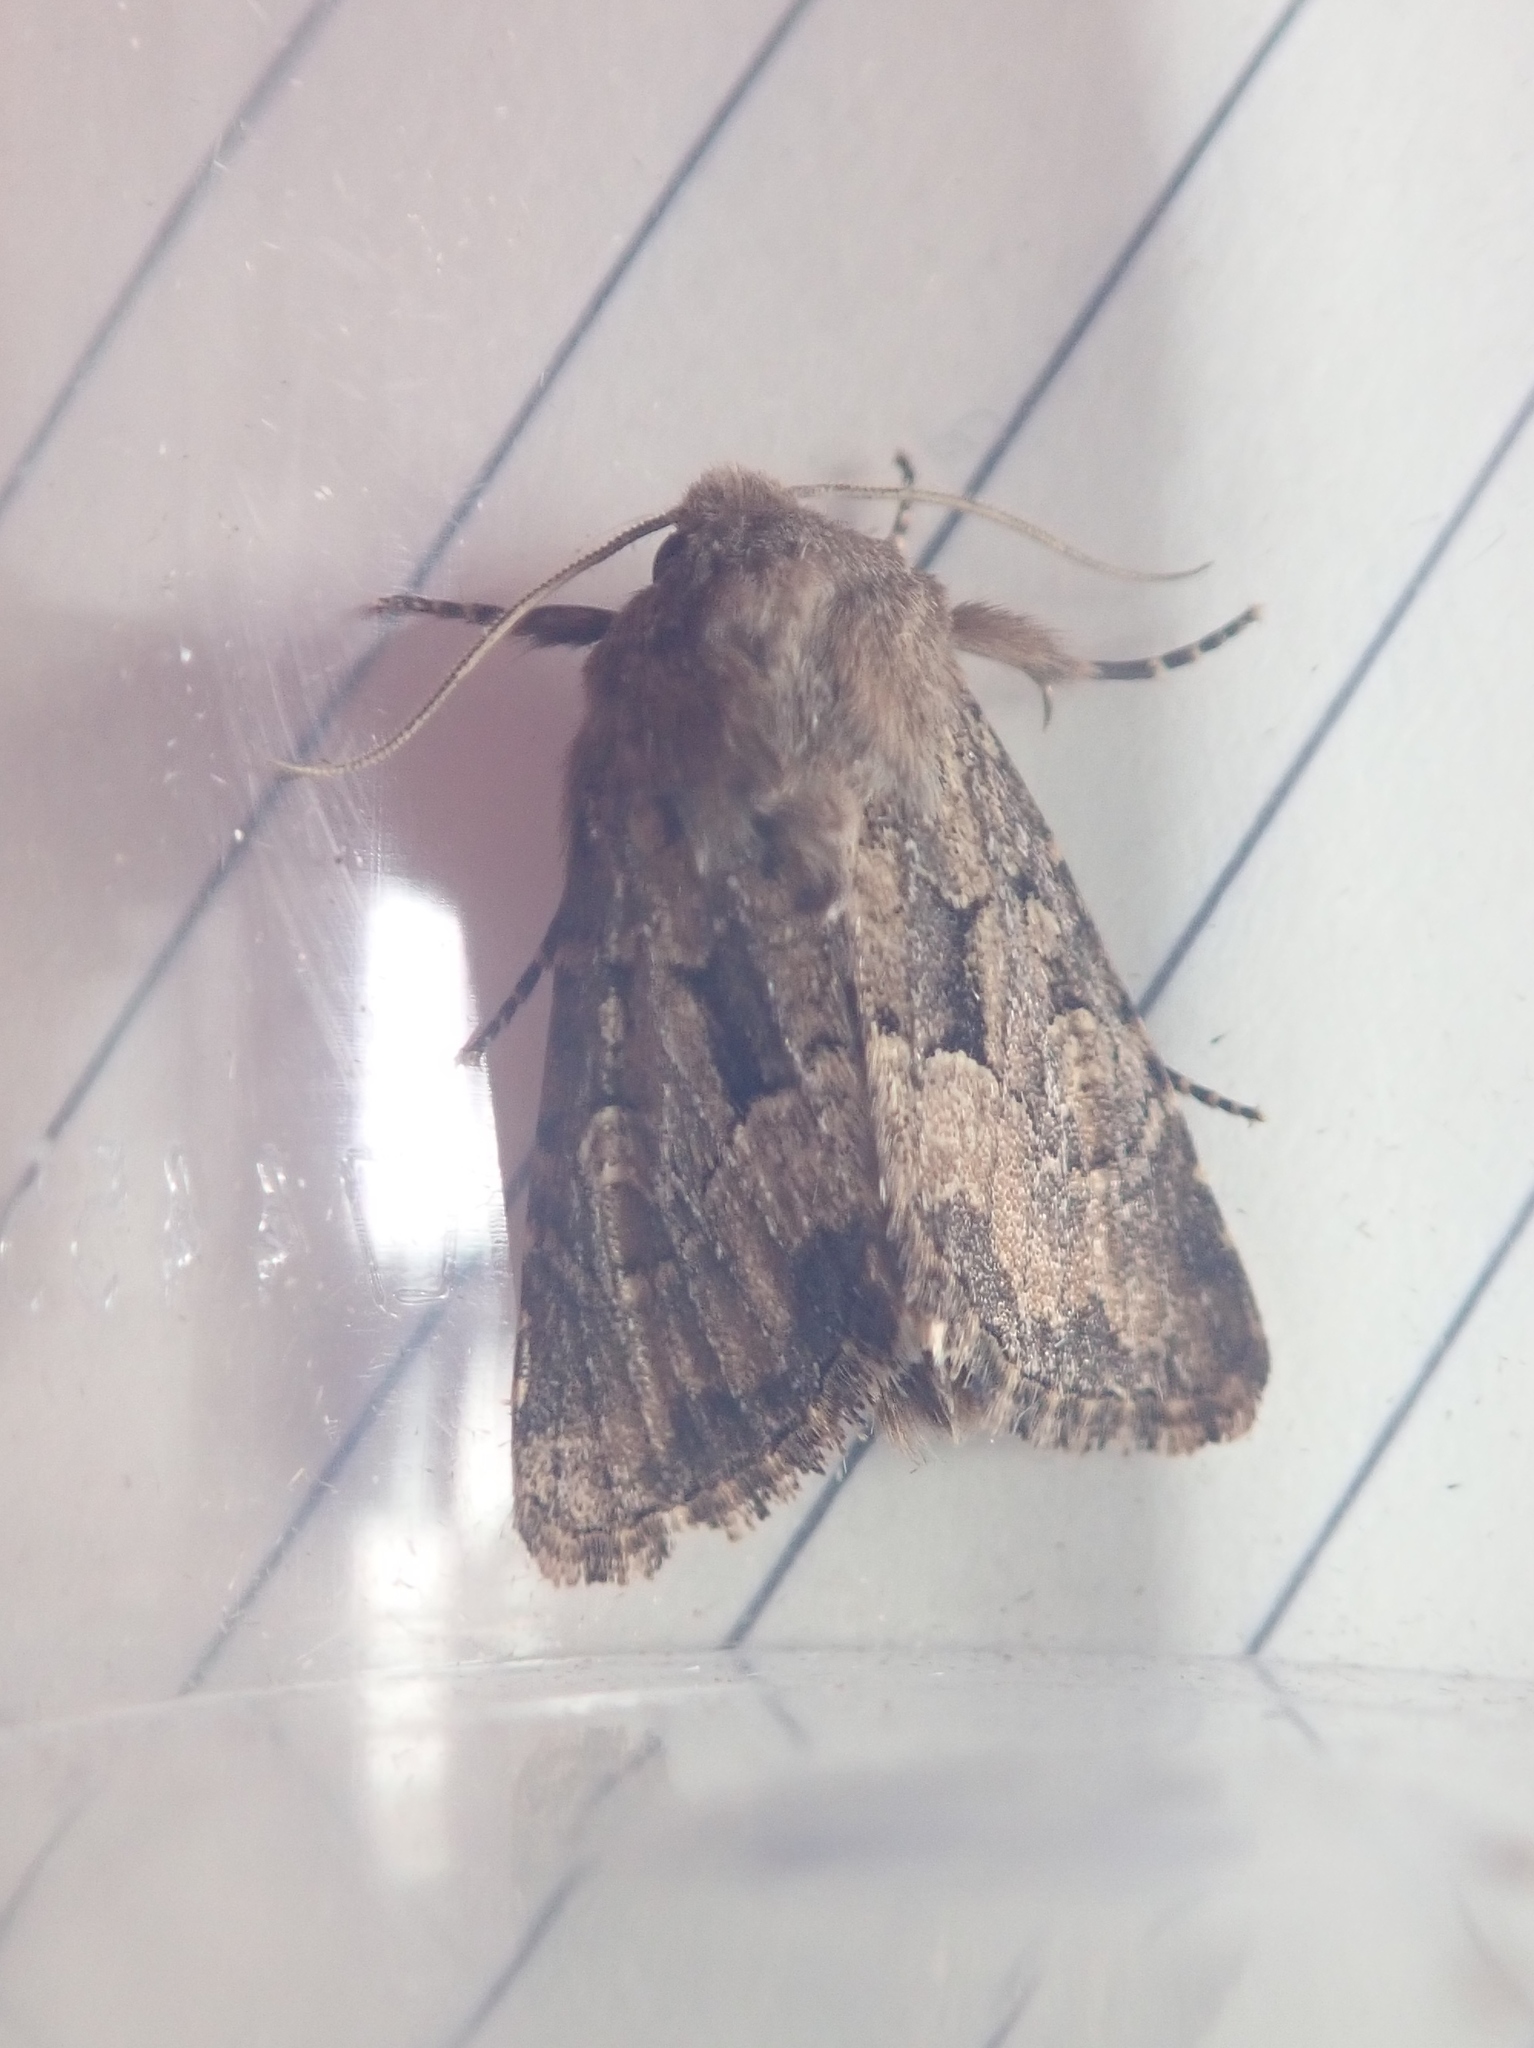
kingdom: Animalia
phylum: Arthropoda
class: Insecta
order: Lepidoptera
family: Noctuidae
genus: Luperina
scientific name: Luperina testacea
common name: Flounced rustic
